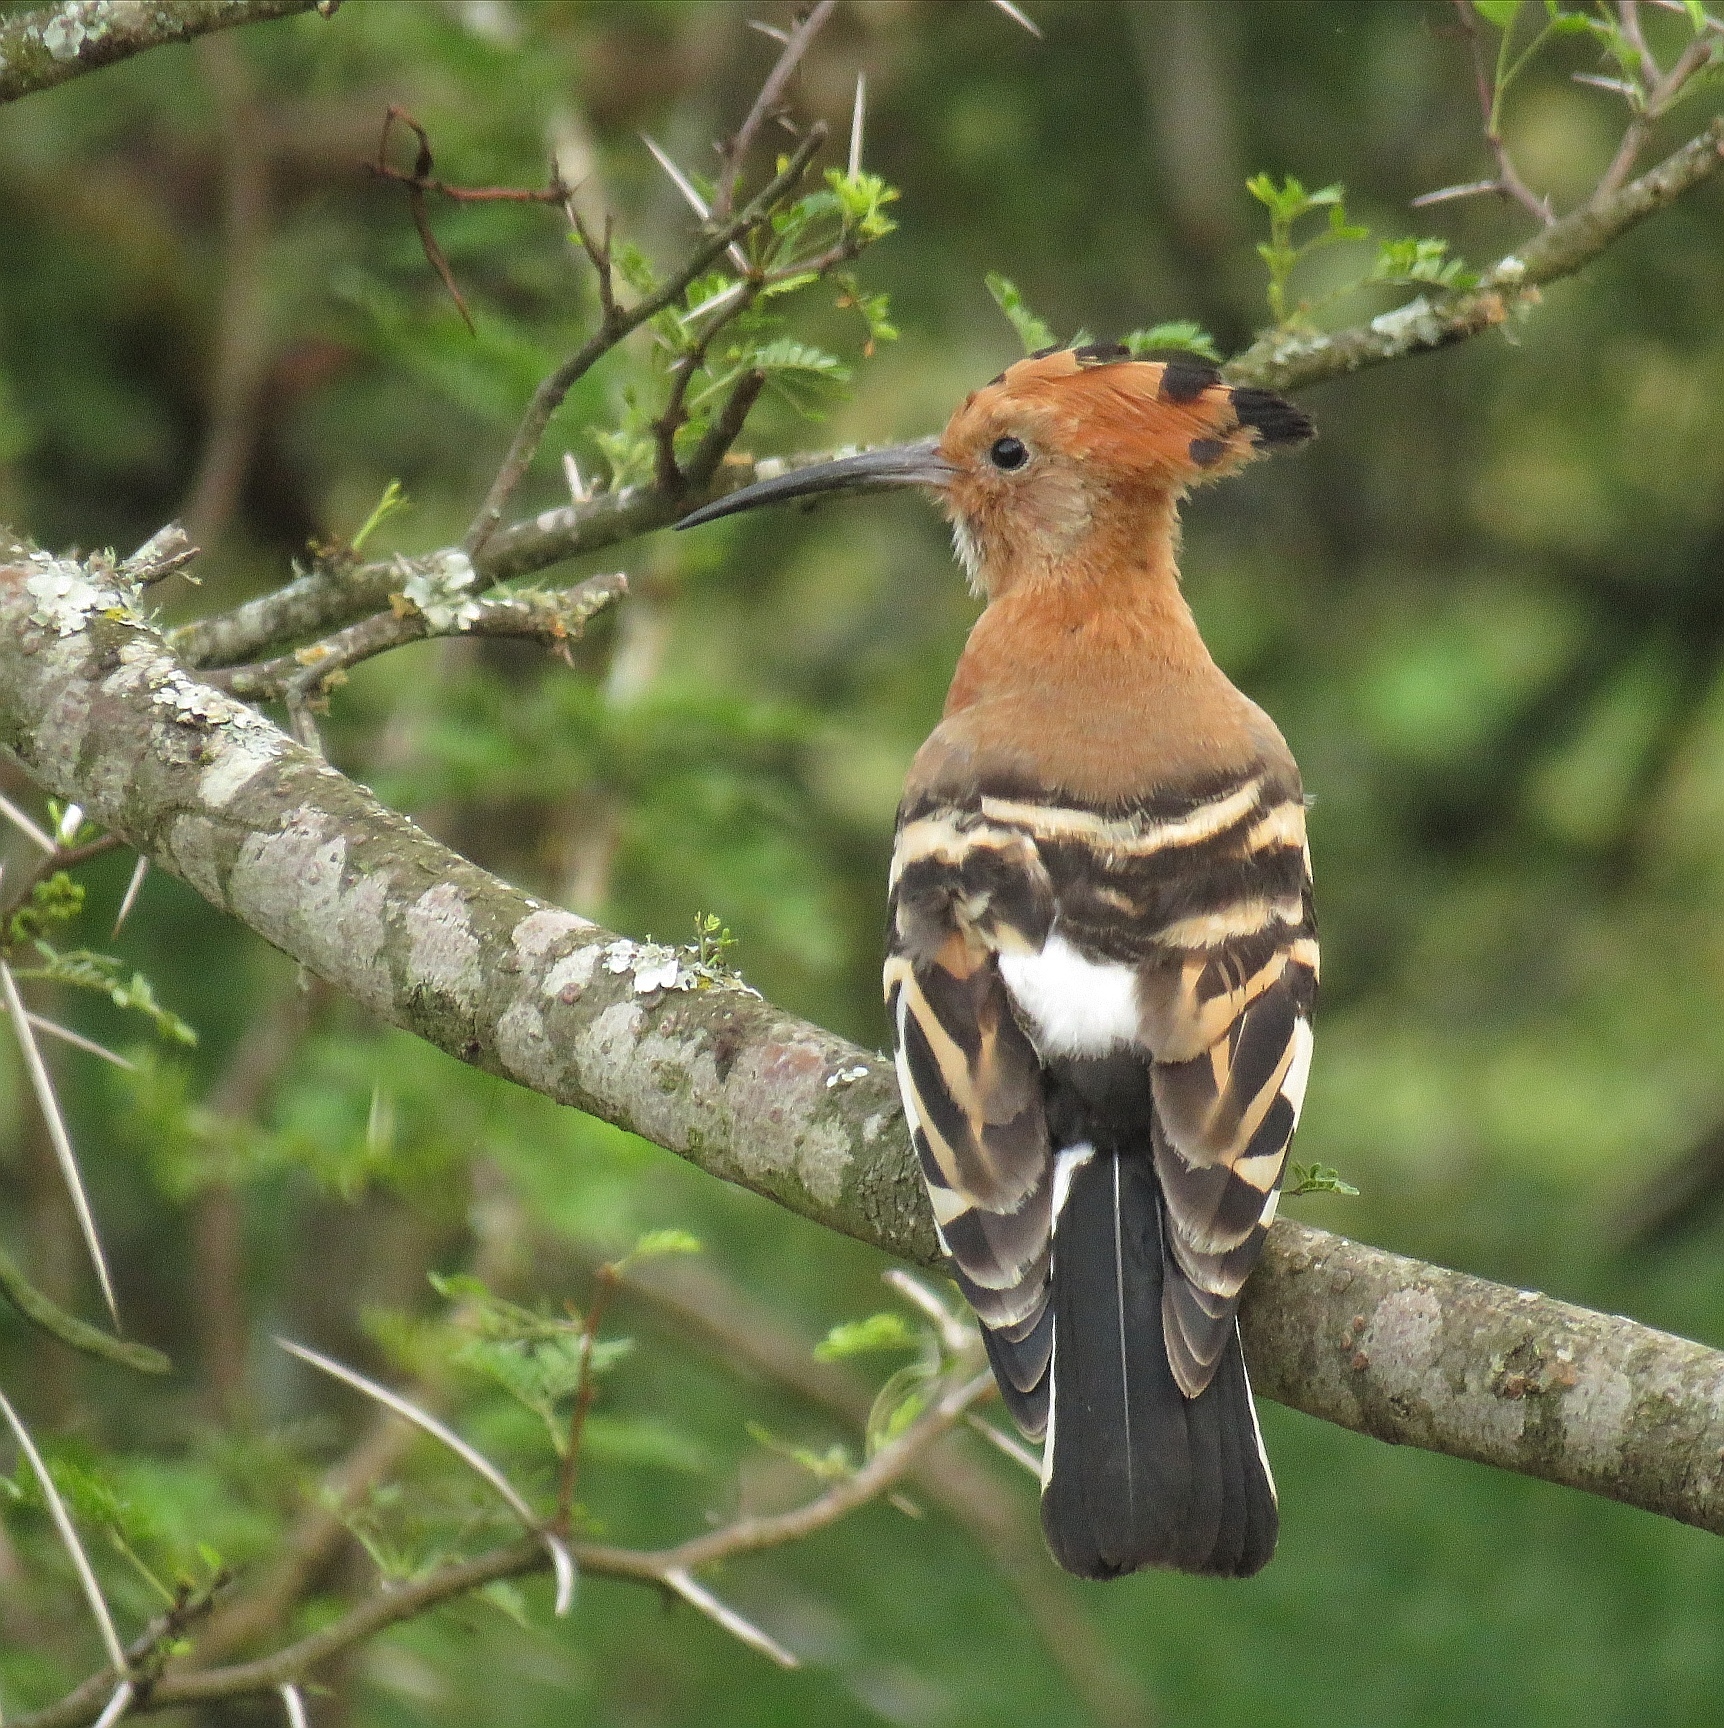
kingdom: Animalia
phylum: Chordata
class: Aves
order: Bucerotiformes
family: Upupidae
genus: Upupa
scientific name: Upupa africana
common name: African hoopoe
